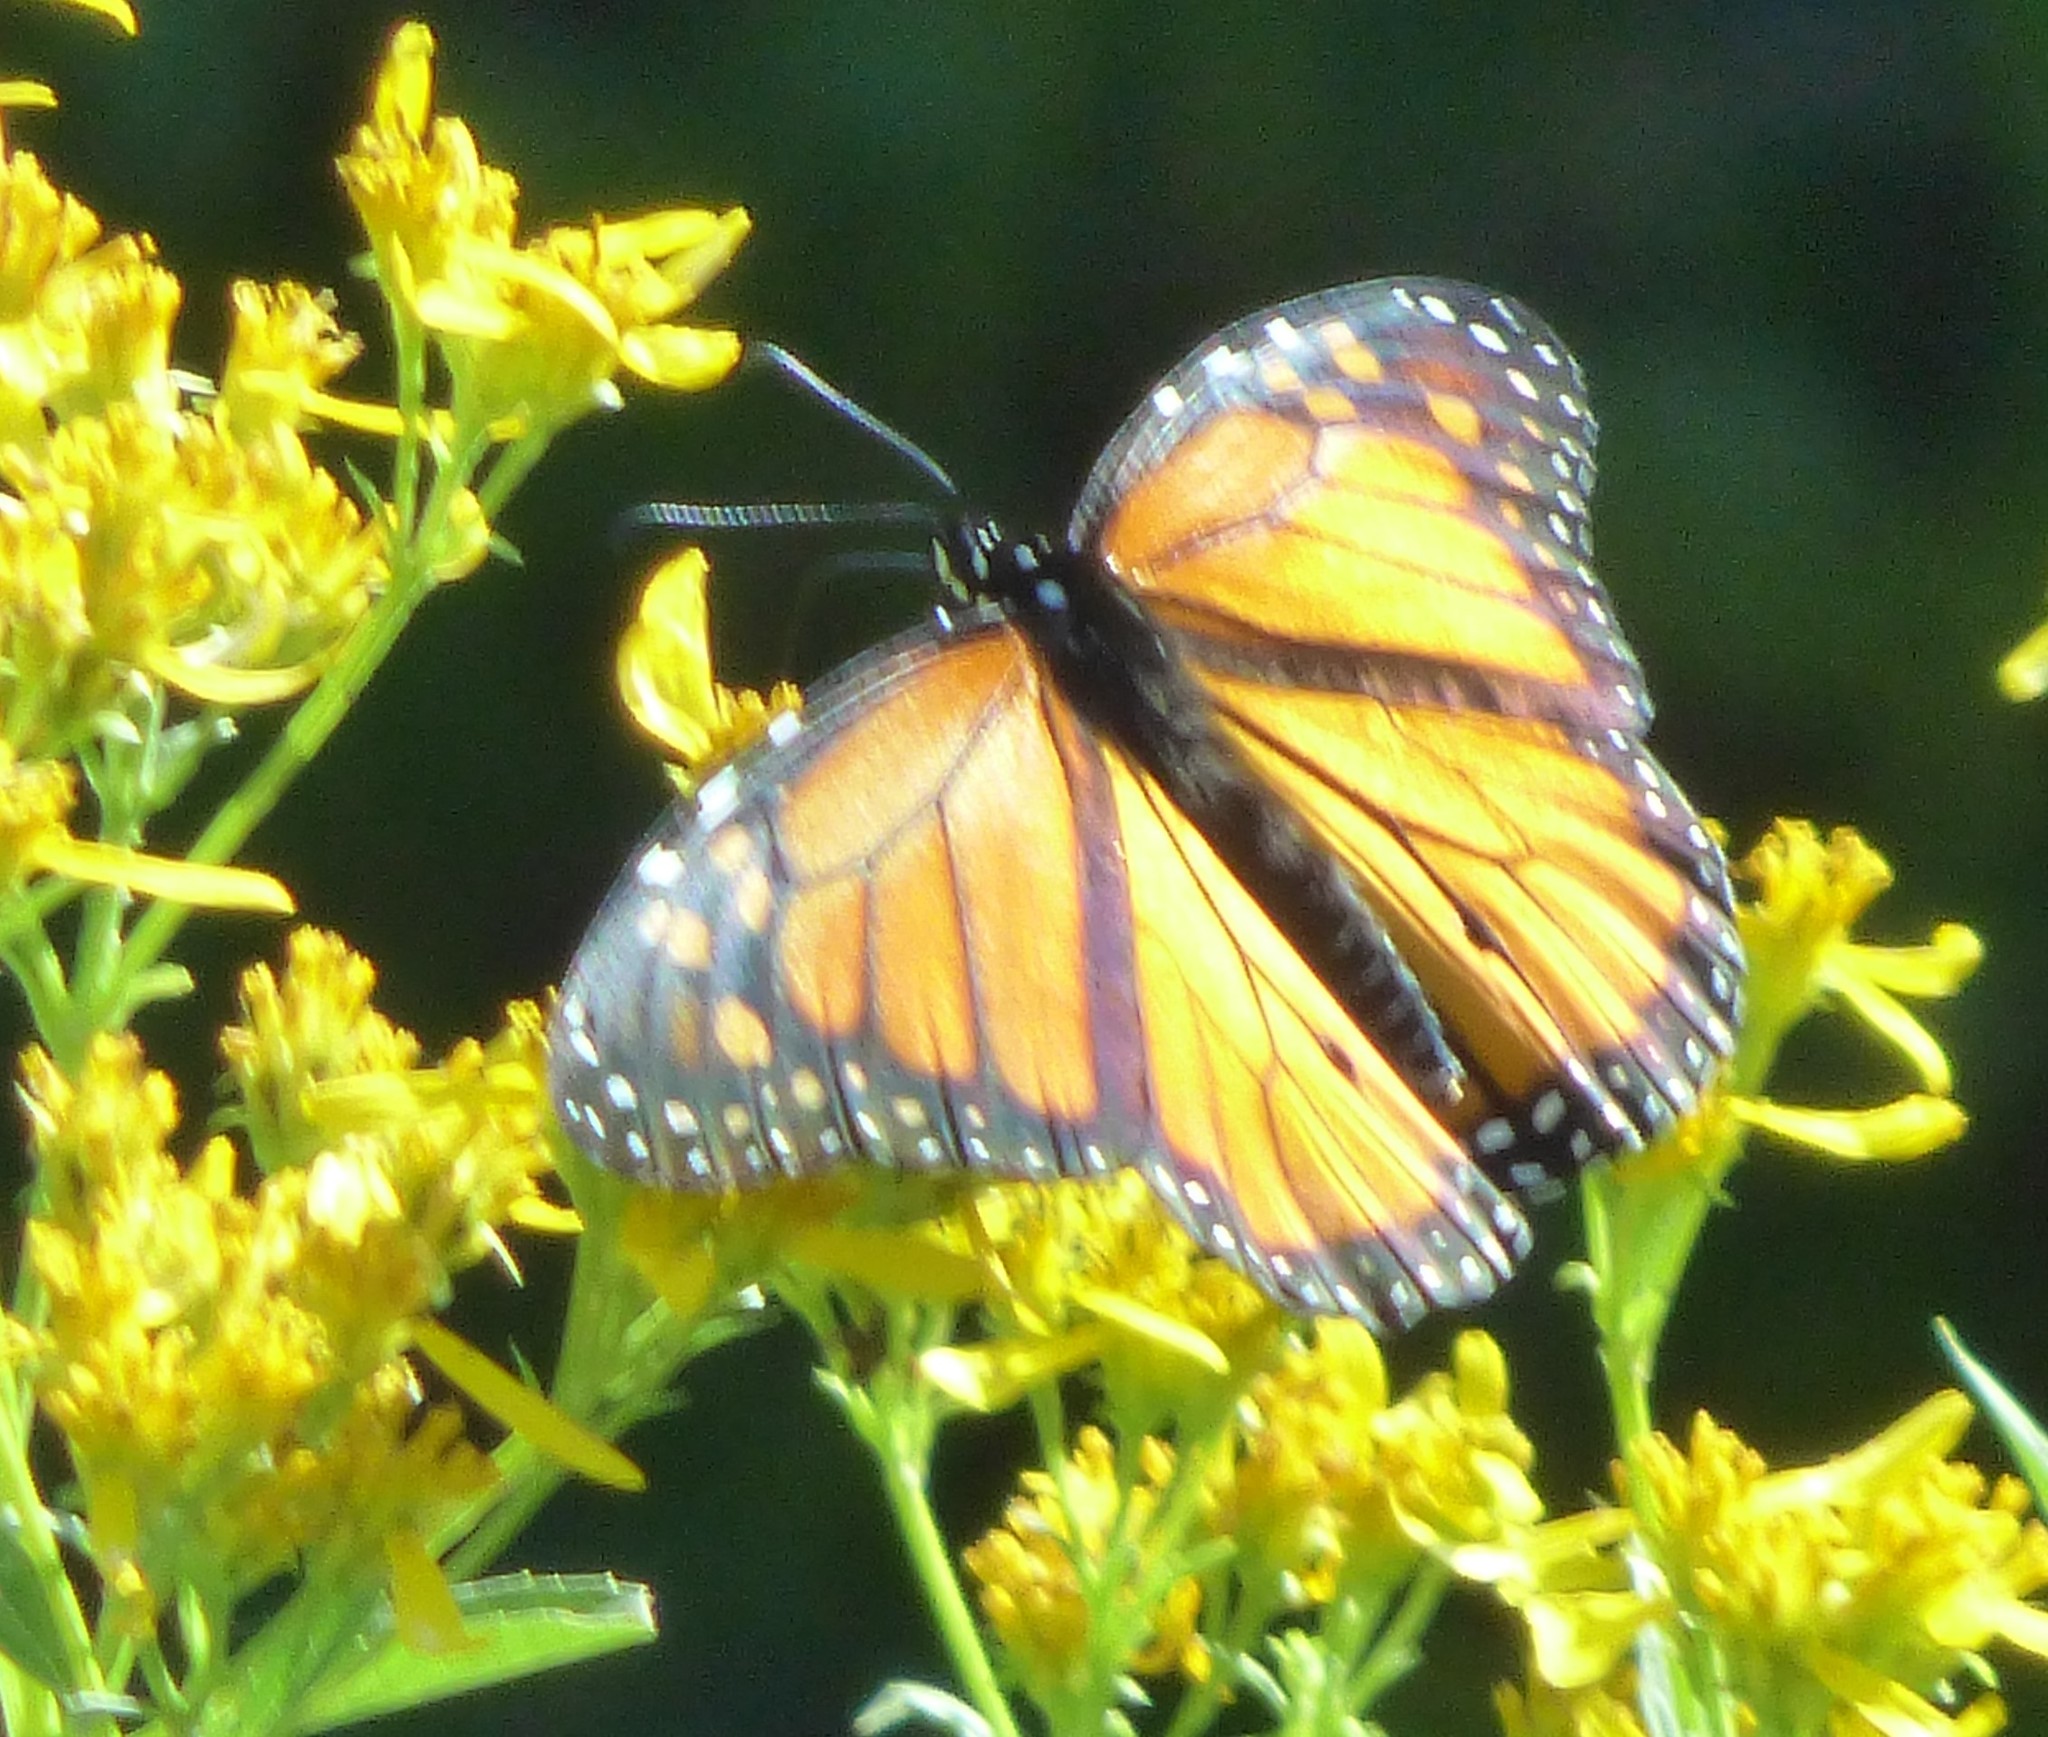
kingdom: Animalia
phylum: Arthropoda
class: Insecta
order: Lepidoptera
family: Nymphalidae
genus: Danaus
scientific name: Danaus plexippus
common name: Monarch
